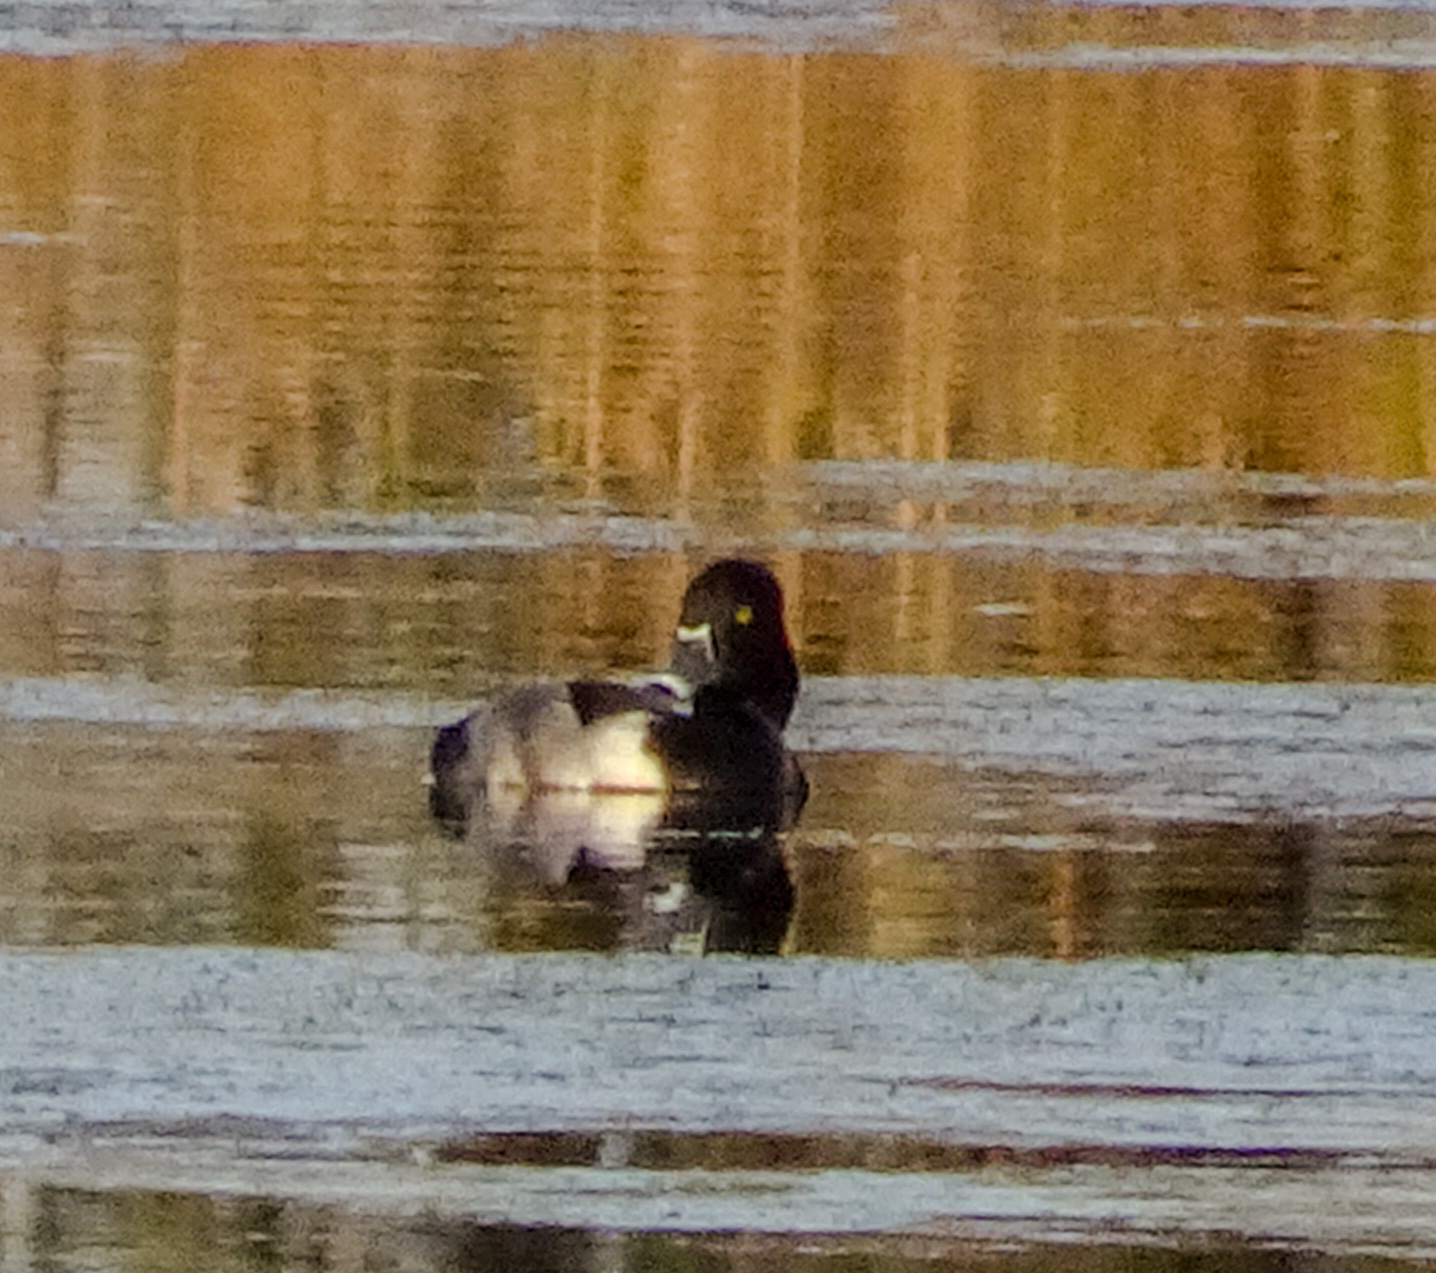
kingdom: Animalia
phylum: Chordata
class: Aves
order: Anseriformes
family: Anatidae
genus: Aythya
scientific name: Aythya collaris
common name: Ring-necked duck
